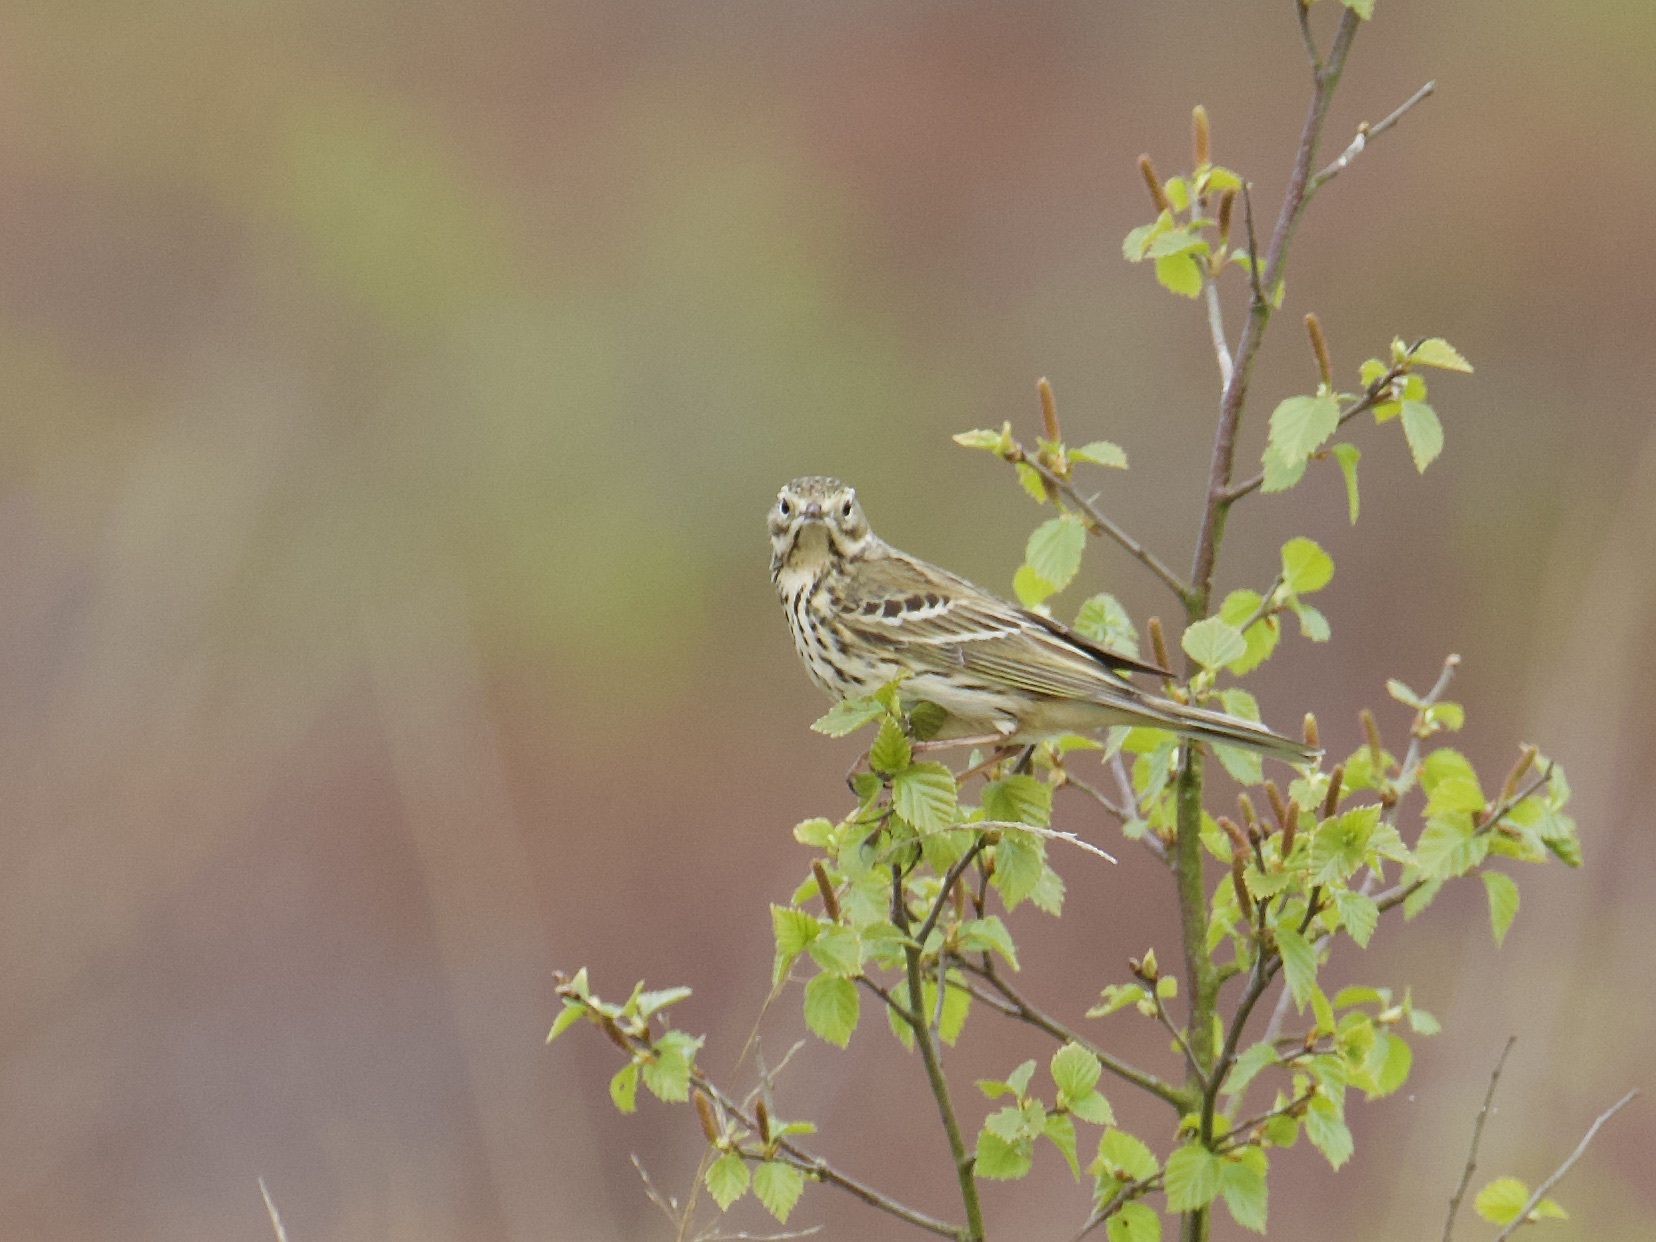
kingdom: Animalia
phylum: Chordata
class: Aves
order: Passeriformes
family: Motacillidae
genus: Anthus
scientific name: Anthus pratensis
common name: Meadow pipit
